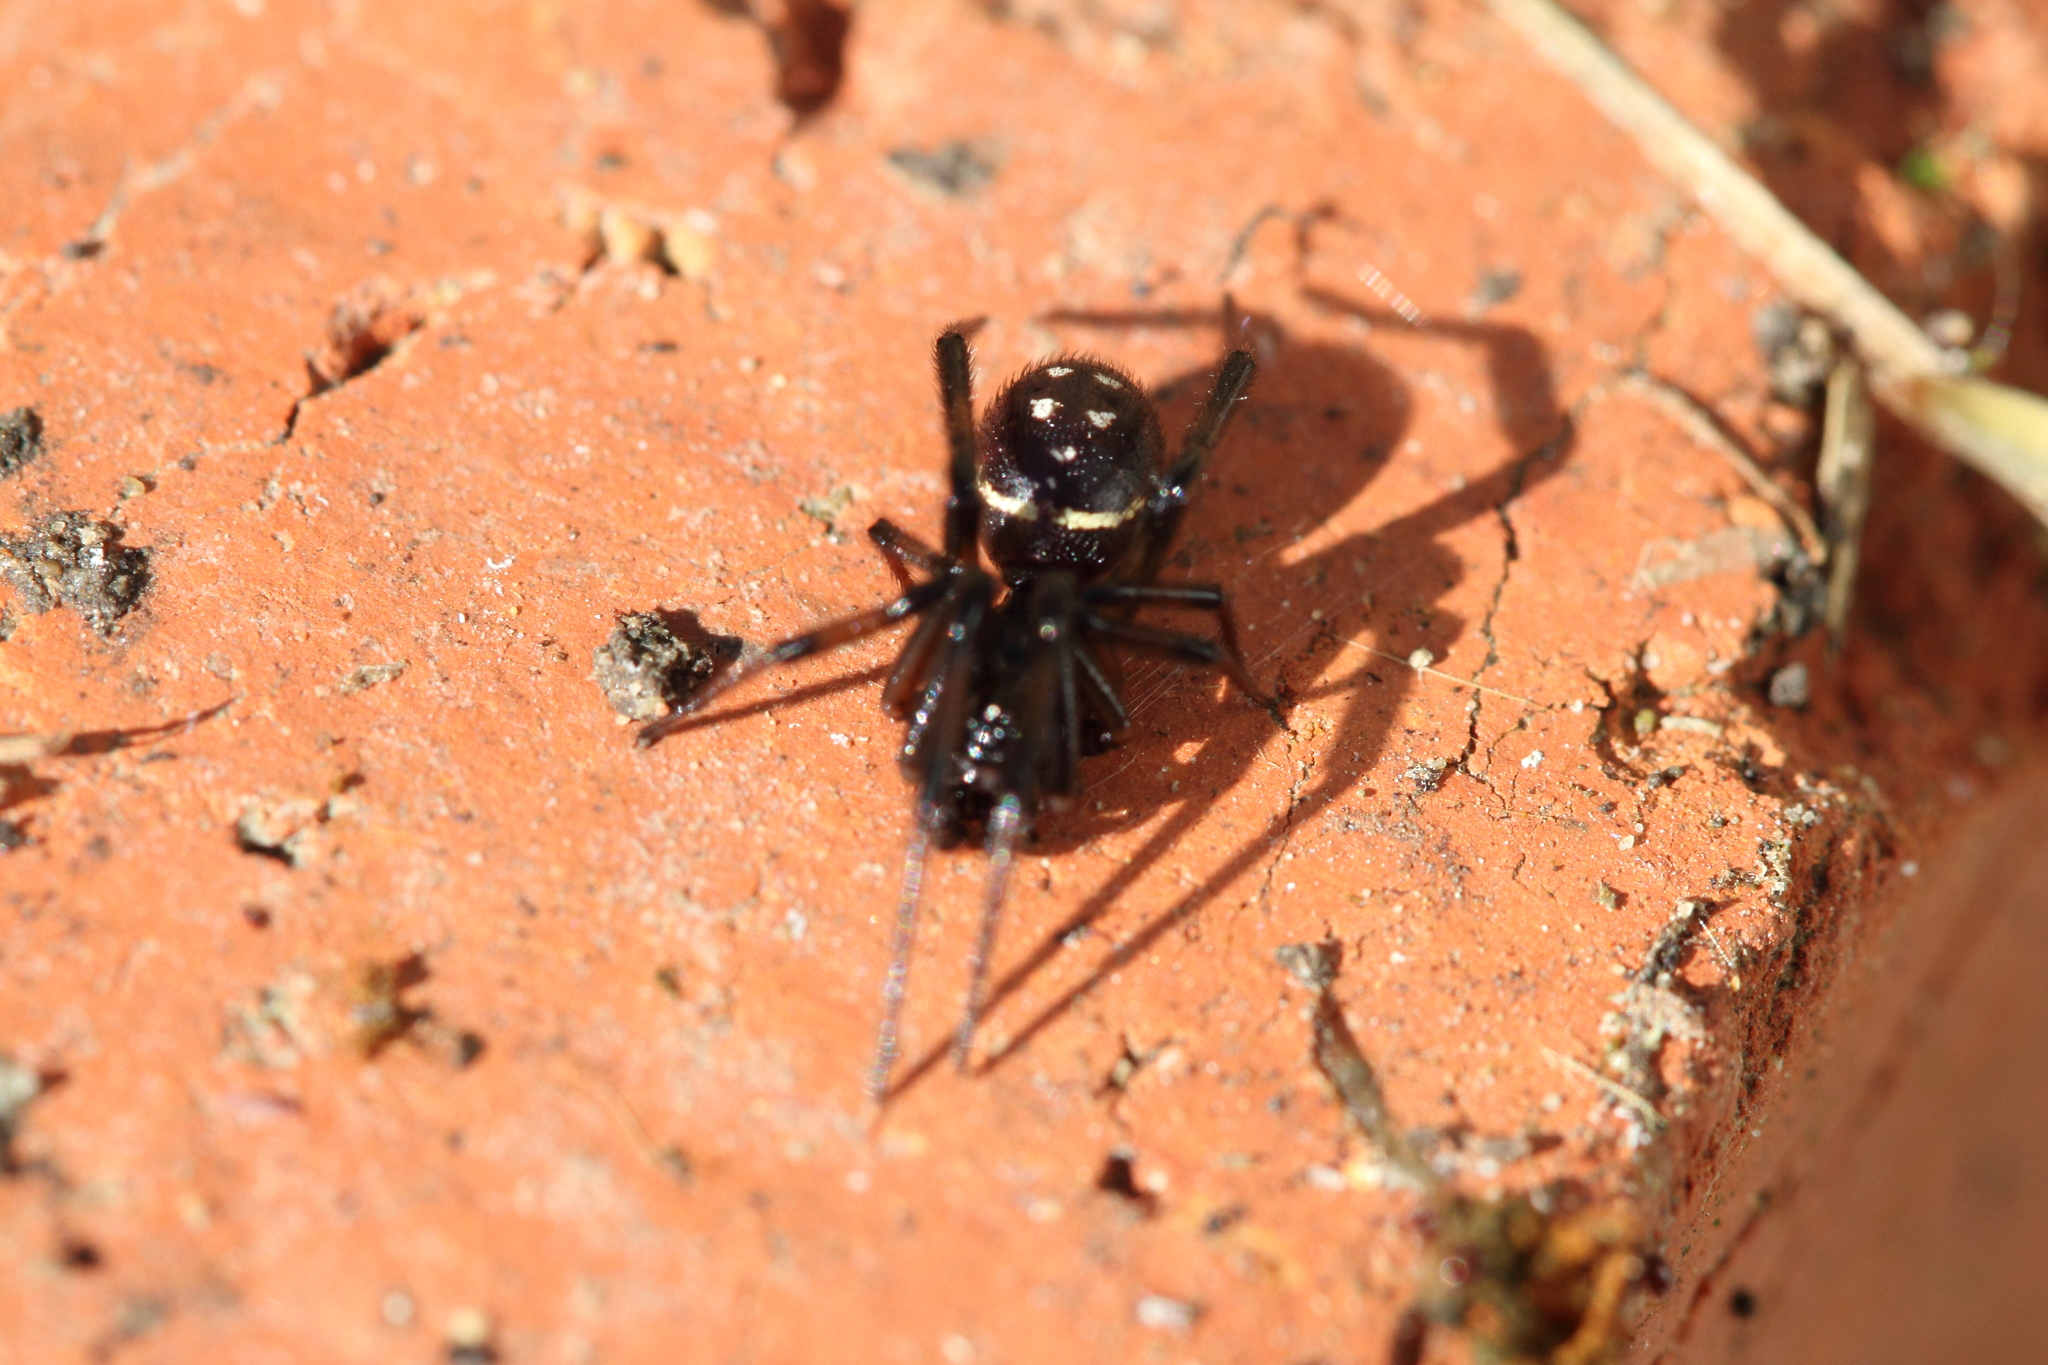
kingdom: Animalia
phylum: Arthropoda
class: Arachnida
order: Araneae
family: Theridiidae
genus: Steatoda
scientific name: Steatoda capensis
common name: Cobweb weaver
